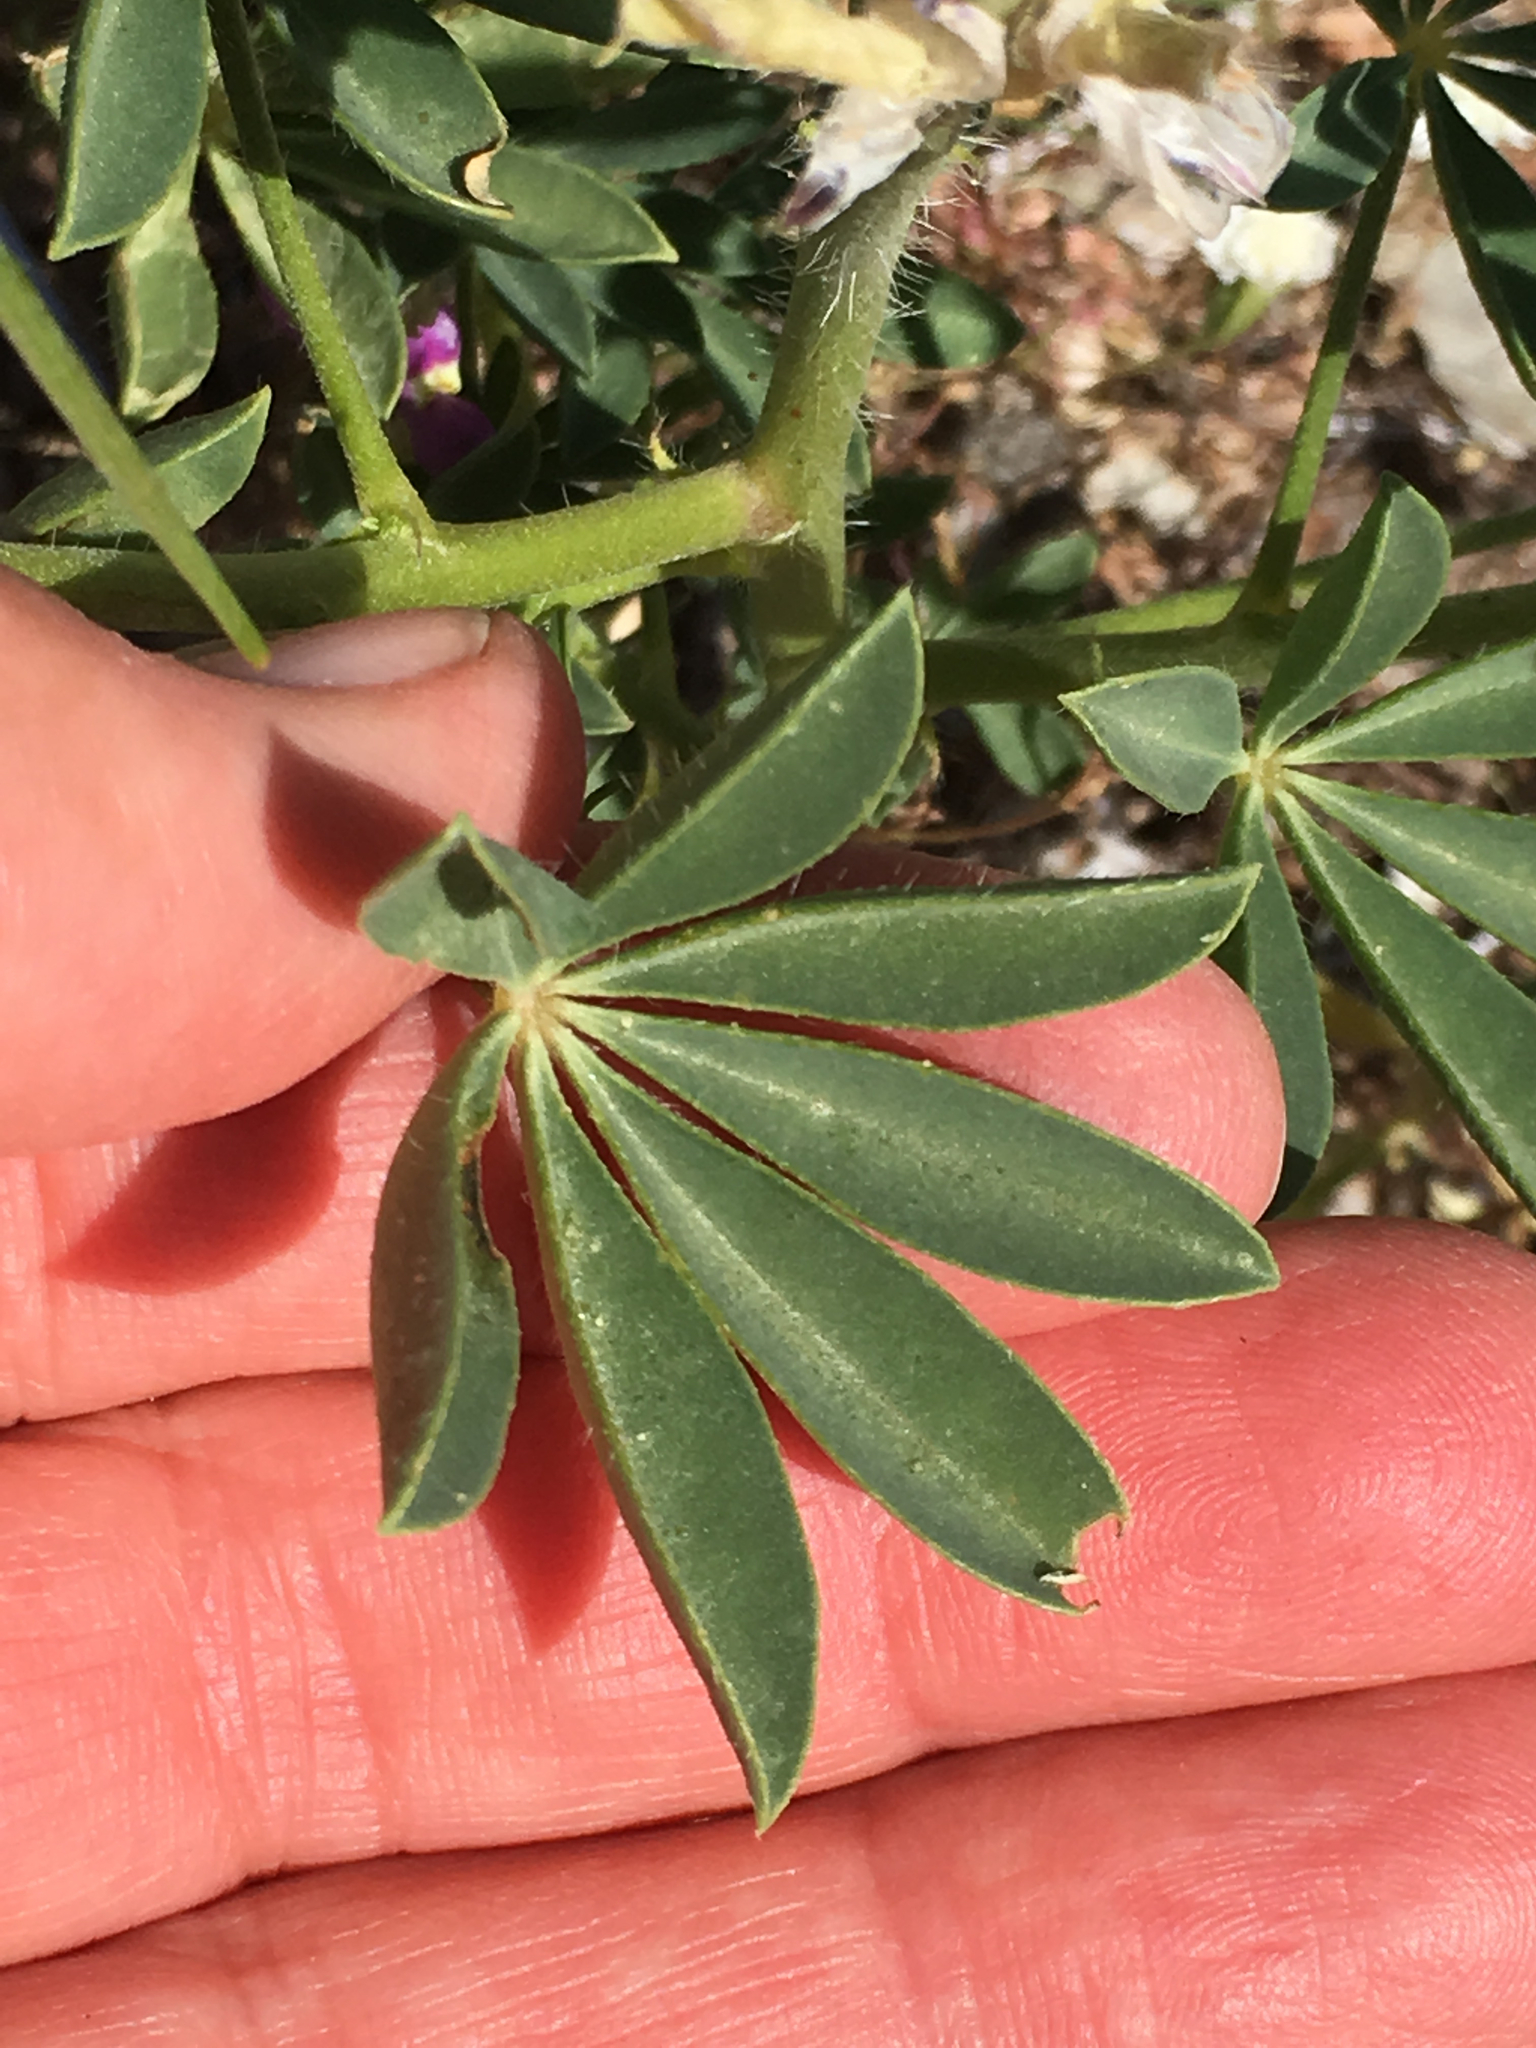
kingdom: Plantae
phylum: Tracheophyta
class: Magnoliopsida
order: Fabales
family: Fabaceae
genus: Lupinus
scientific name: Lupinus arizonicus
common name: Arizona lupine
